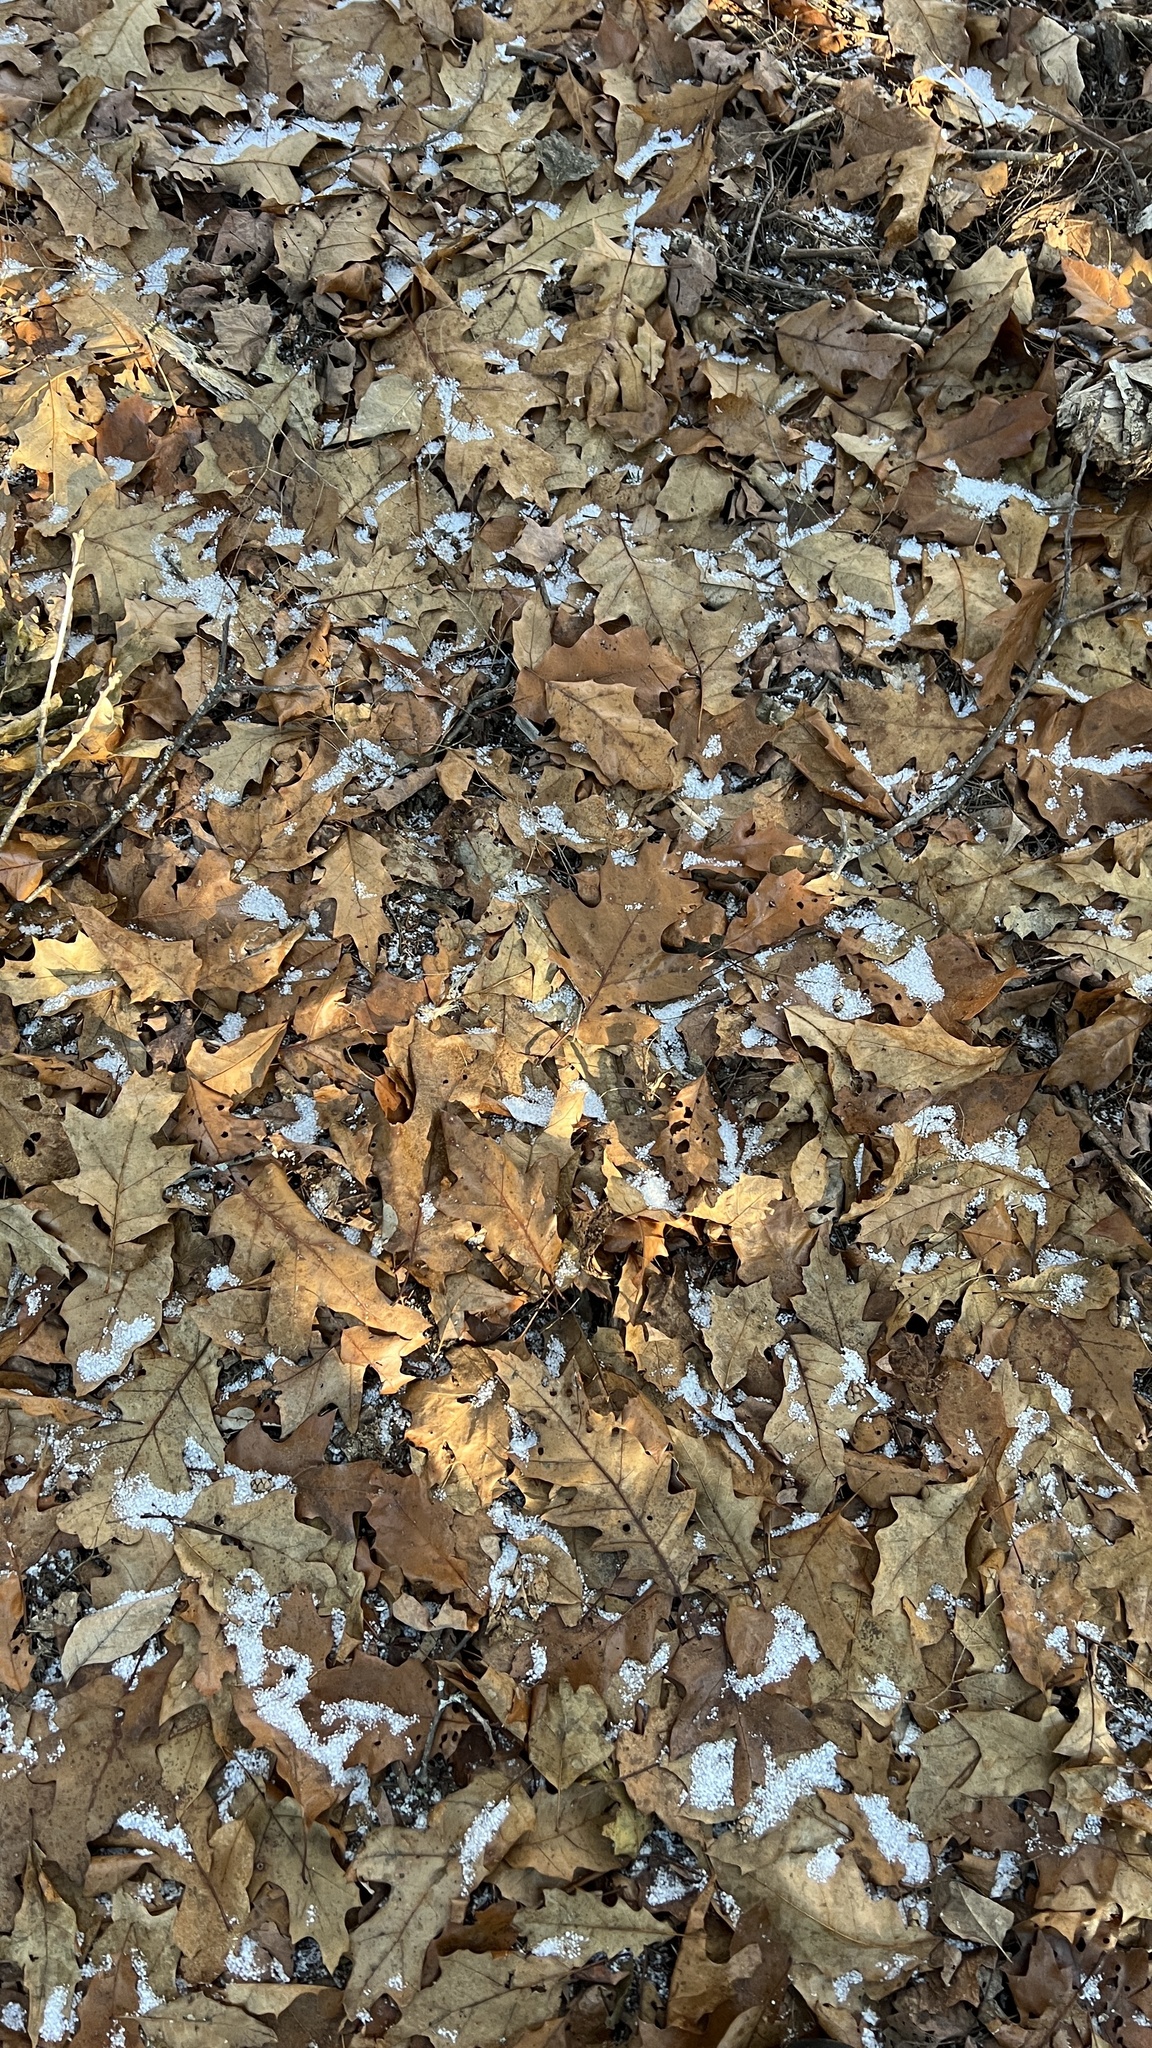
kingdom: Plantae
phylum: Tracheophyta
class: Magnoliopsida
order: Fagales
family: Fagaceae
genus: Quercus
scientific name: Quercus rubra
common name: Red oak
